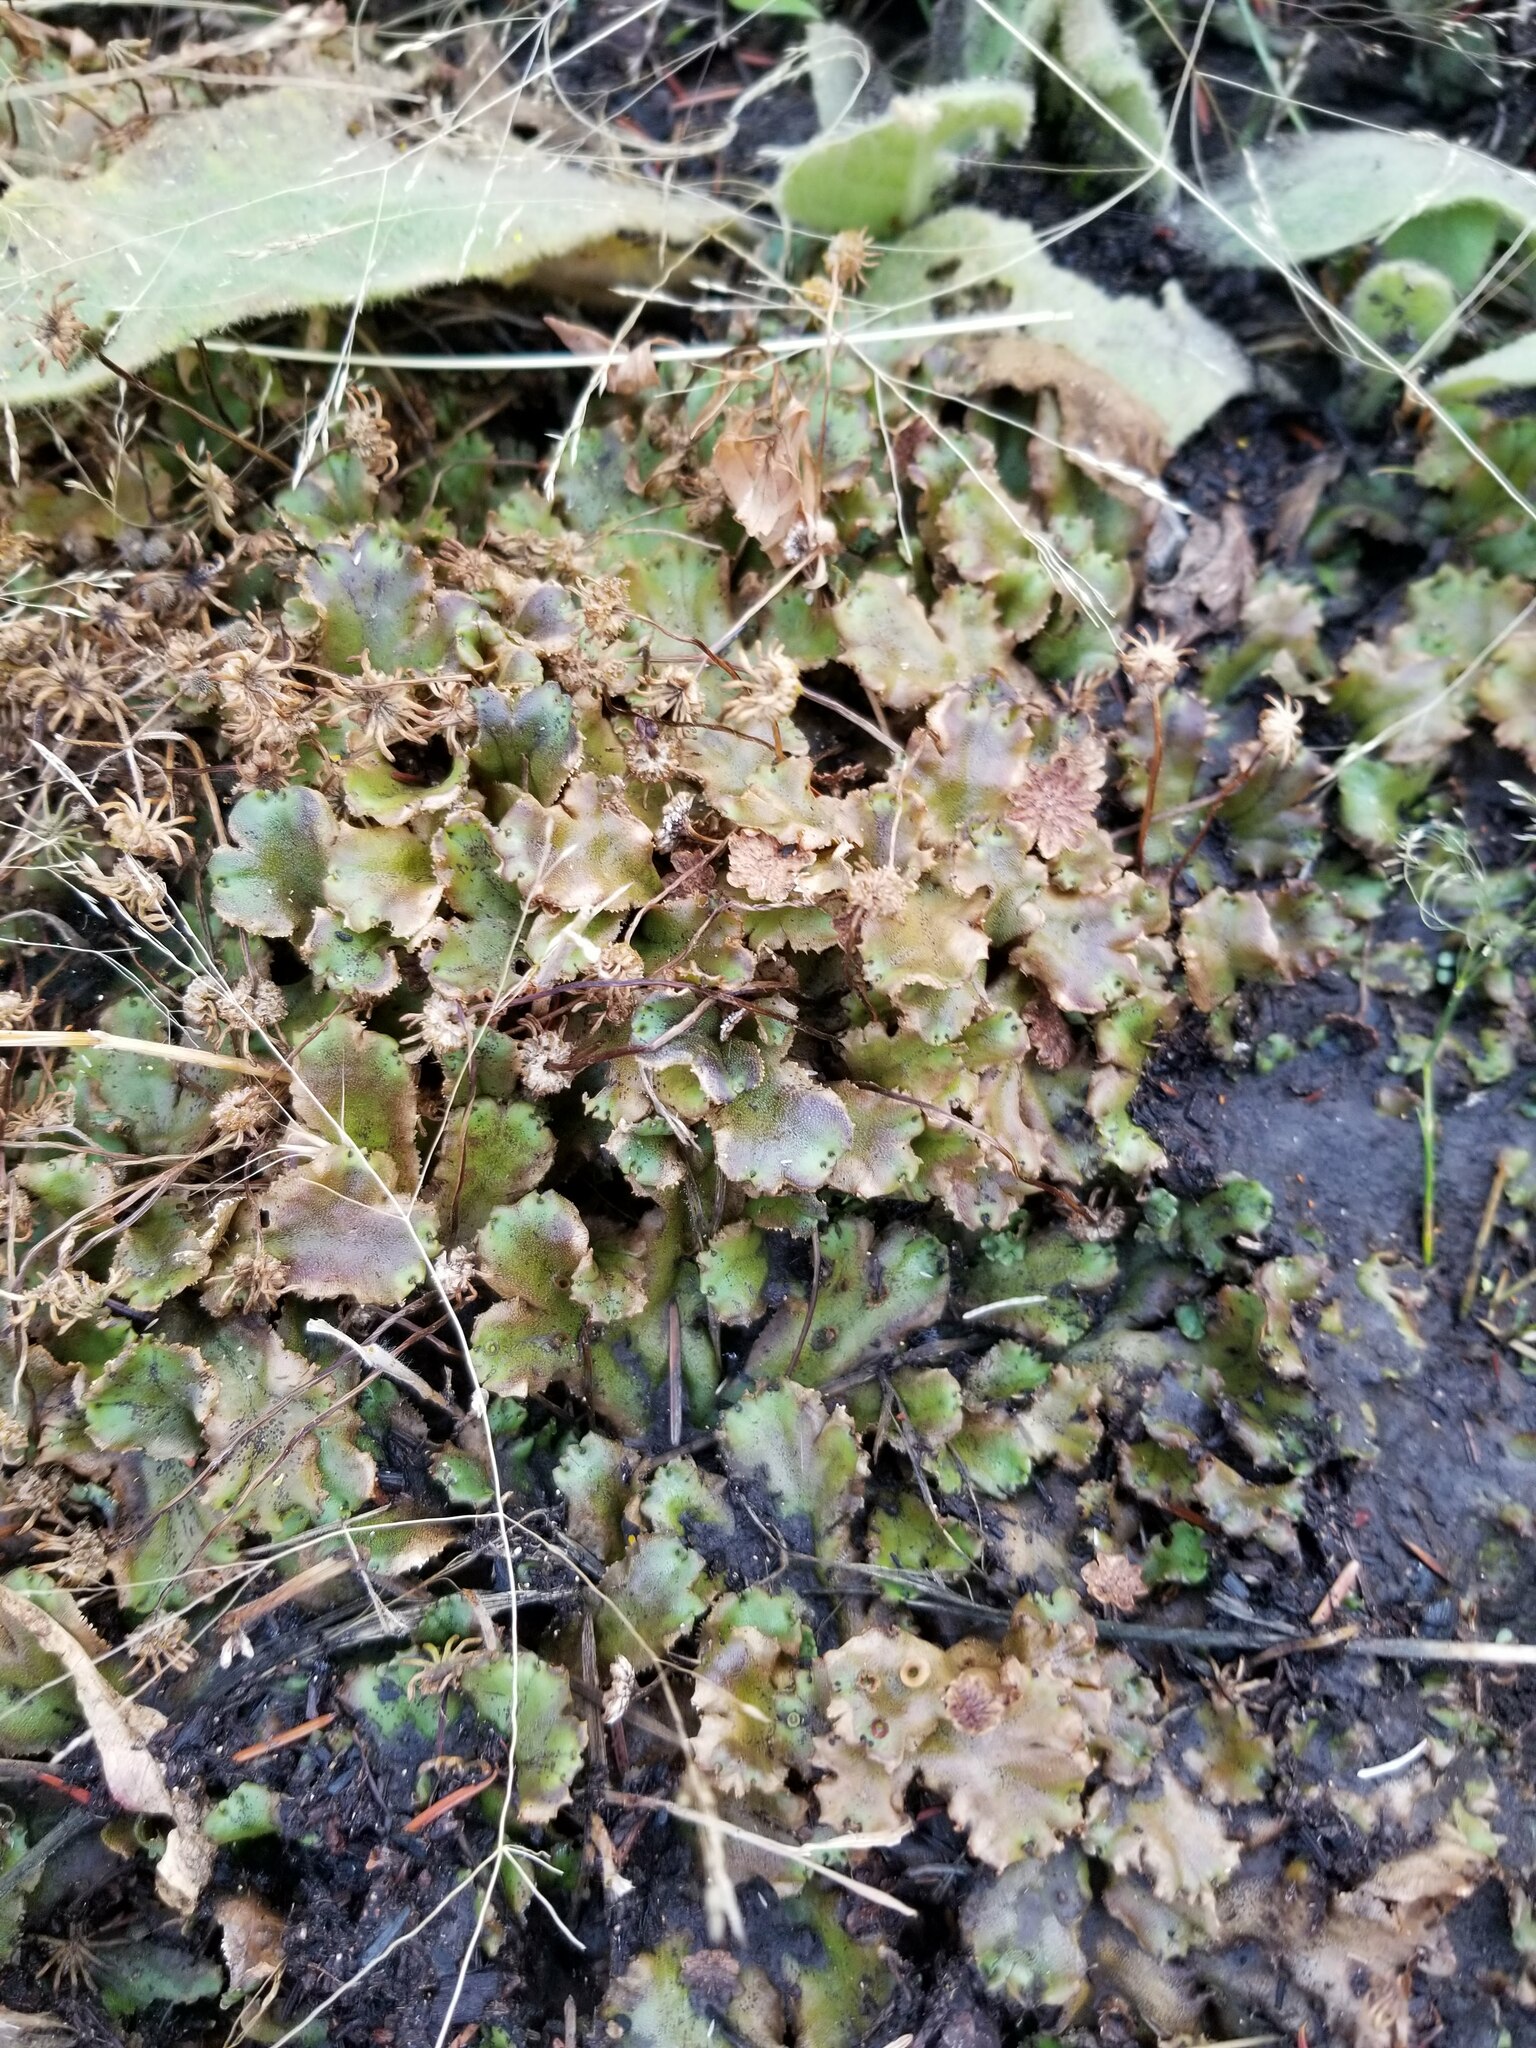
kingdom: Plantae
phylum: Marchantiophyta
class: Marchantiopsida
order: Marchantiales
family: Marchantiaceae
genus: Marchantia
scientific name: Marchantia polymorpha
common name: Common liverwort
